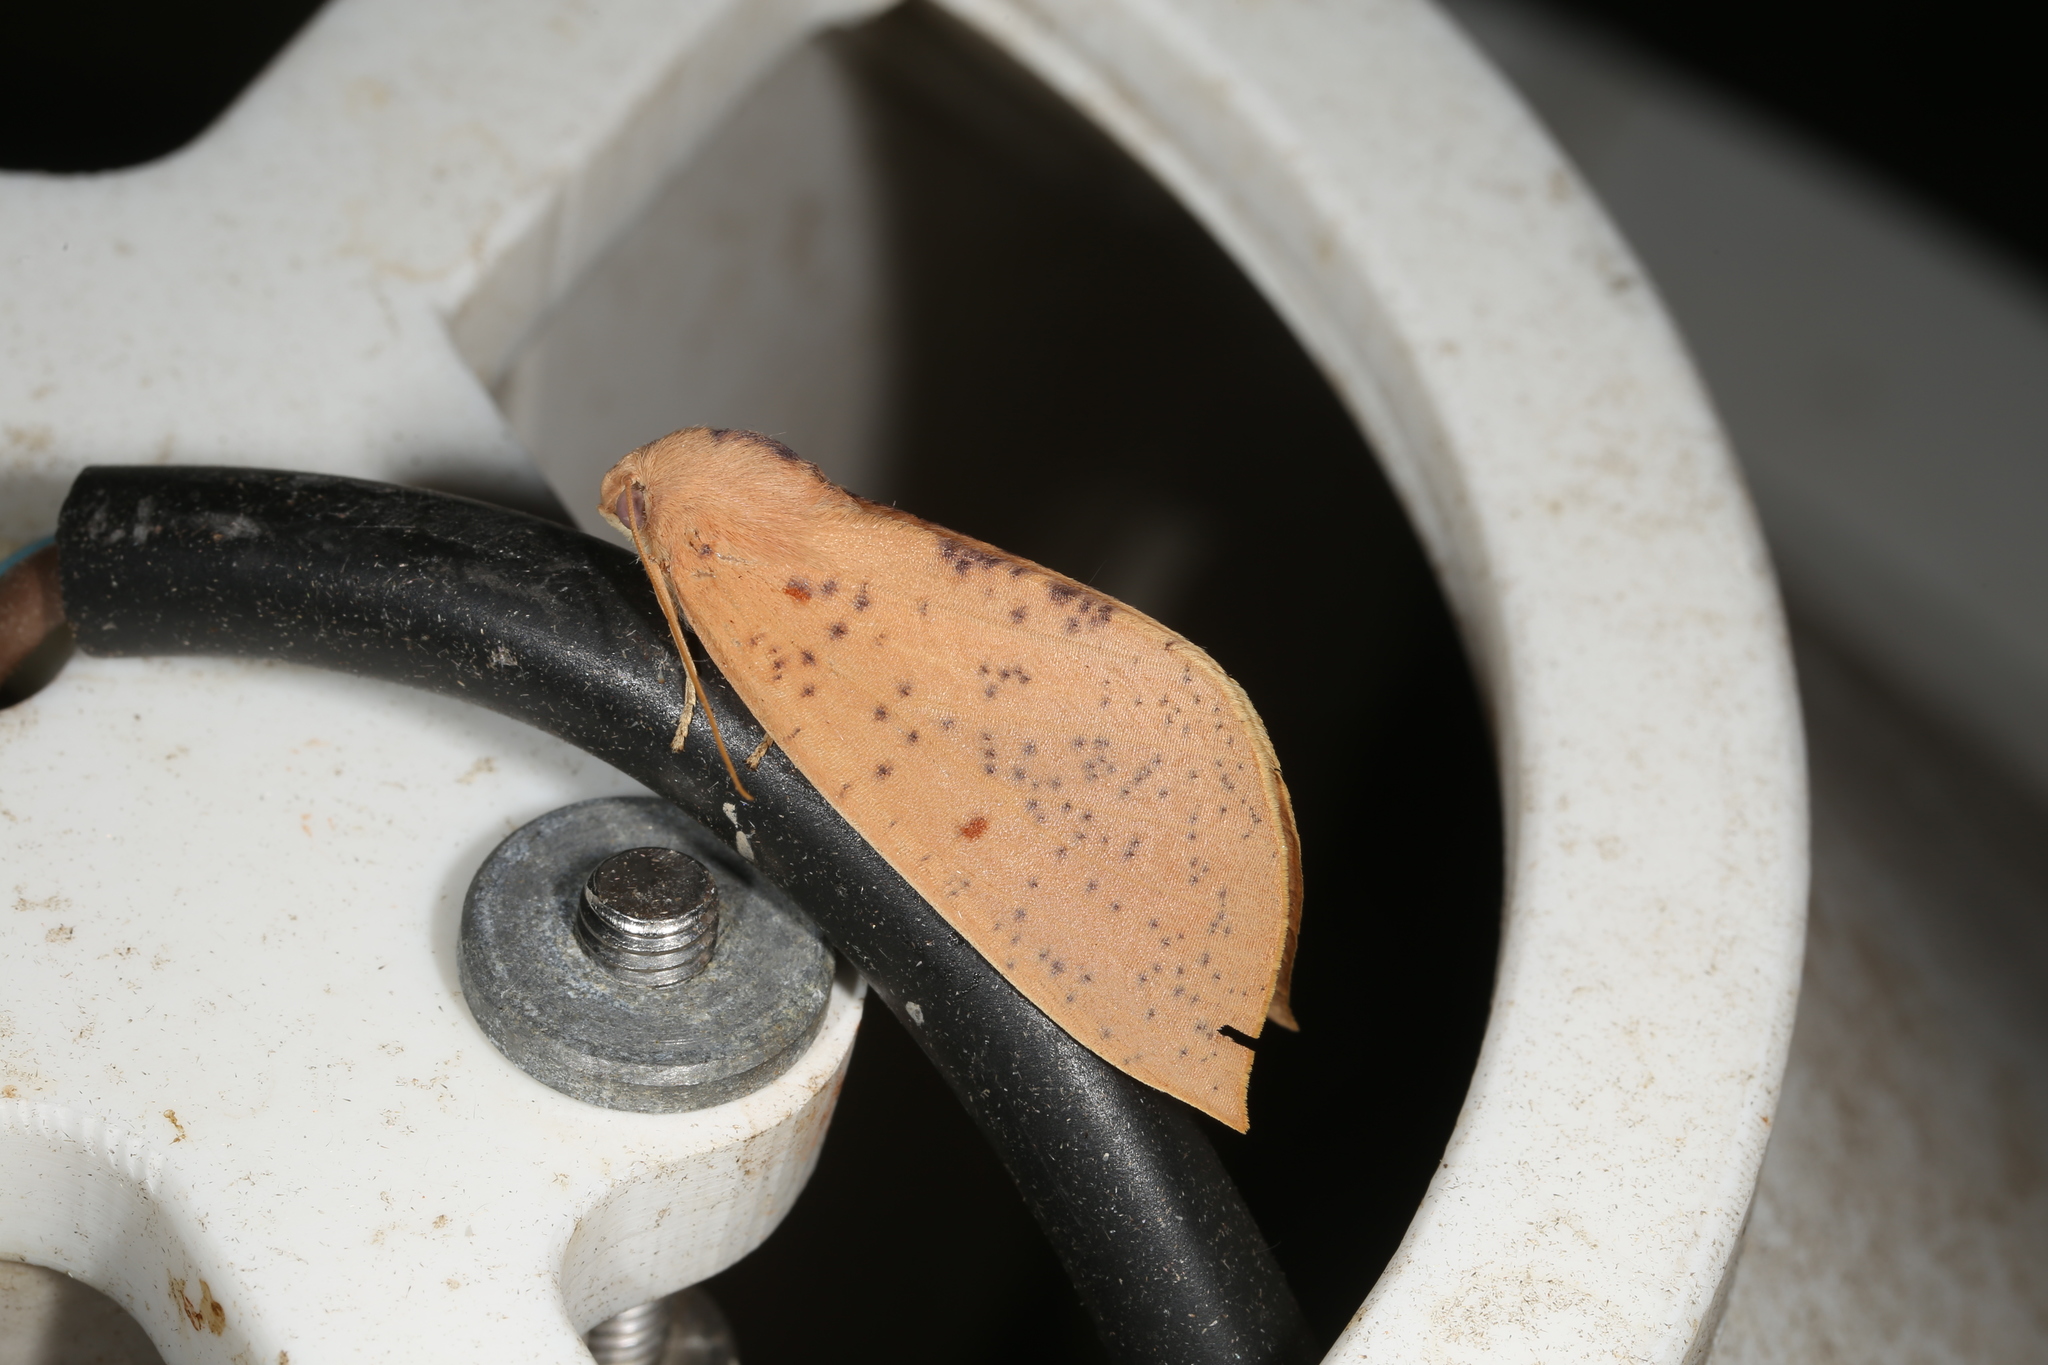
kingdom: Animalia
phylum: Arthropoda
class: Insecta
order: Lepidoptera
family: Geometridae
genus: Plesanemma
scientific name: Plesanemma fucata
